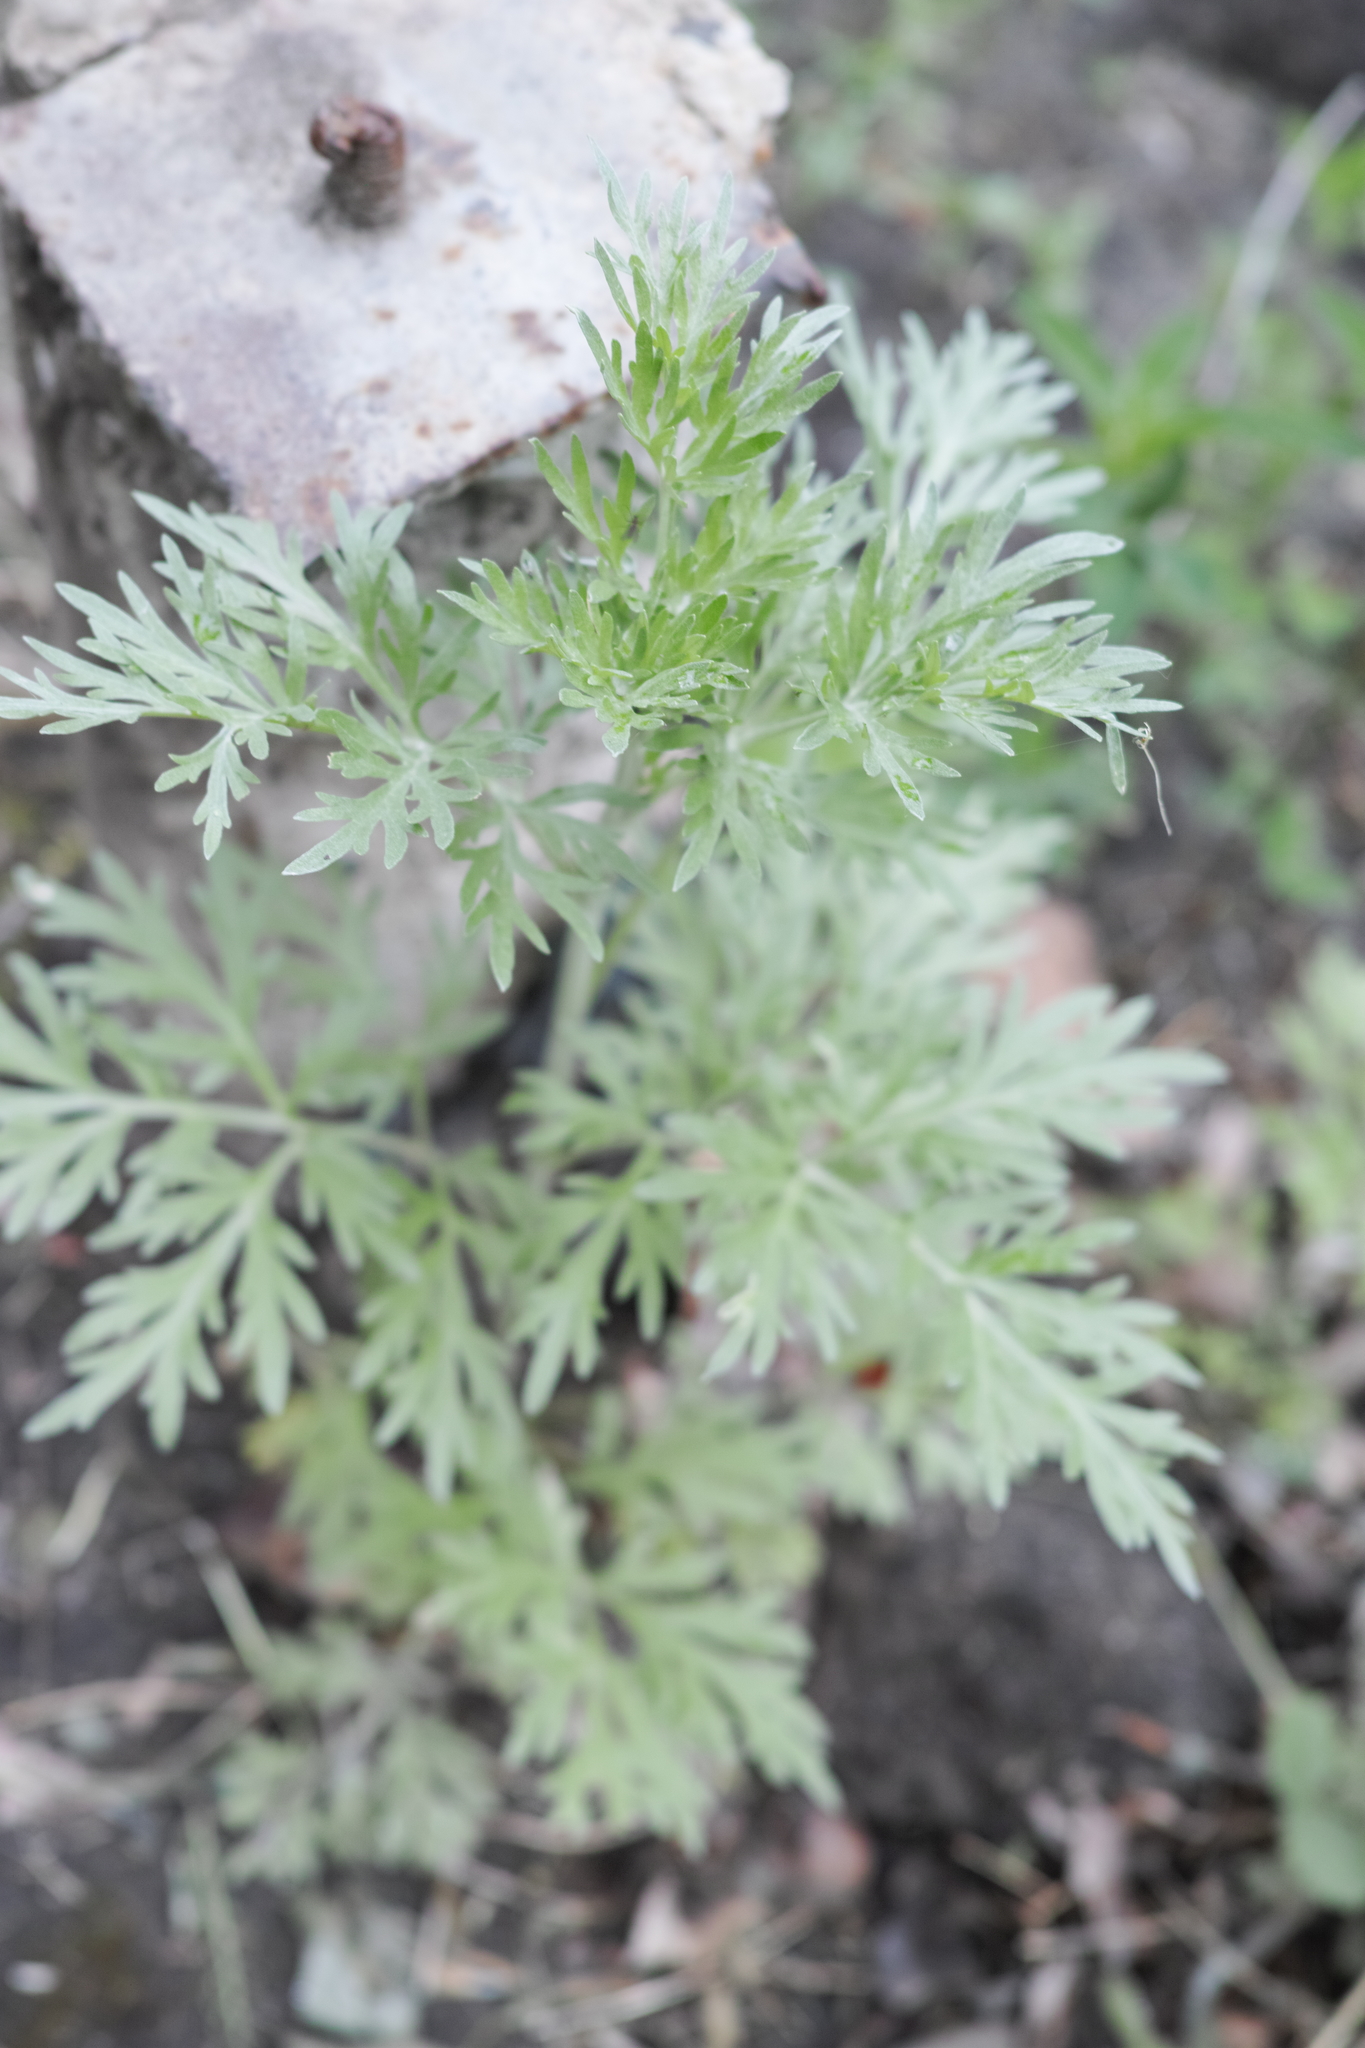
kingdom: Plantae
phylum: Tracheophyta
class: Magnoliopsida
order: Asterales
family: Asteraceae
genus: Artemisia
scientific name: Artemisia sieversiana
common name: Sieversian wormwood
